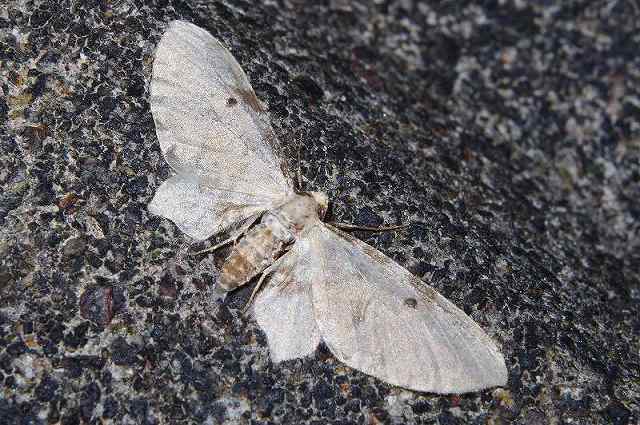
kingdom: Animalia
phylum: Arthropoda
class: Insecta
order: Lepidoptera
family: Geometridae
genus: Brabira
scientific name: Brabira artemidora
